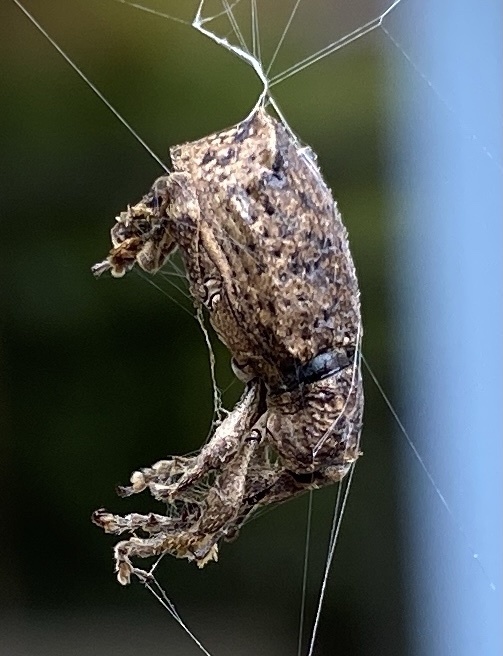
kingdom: Animalia
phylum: Arthropoda
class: Insecta
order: Coleoptera
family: Curculionidae
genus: Chalepistes
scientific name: Chalepistes rhesus
